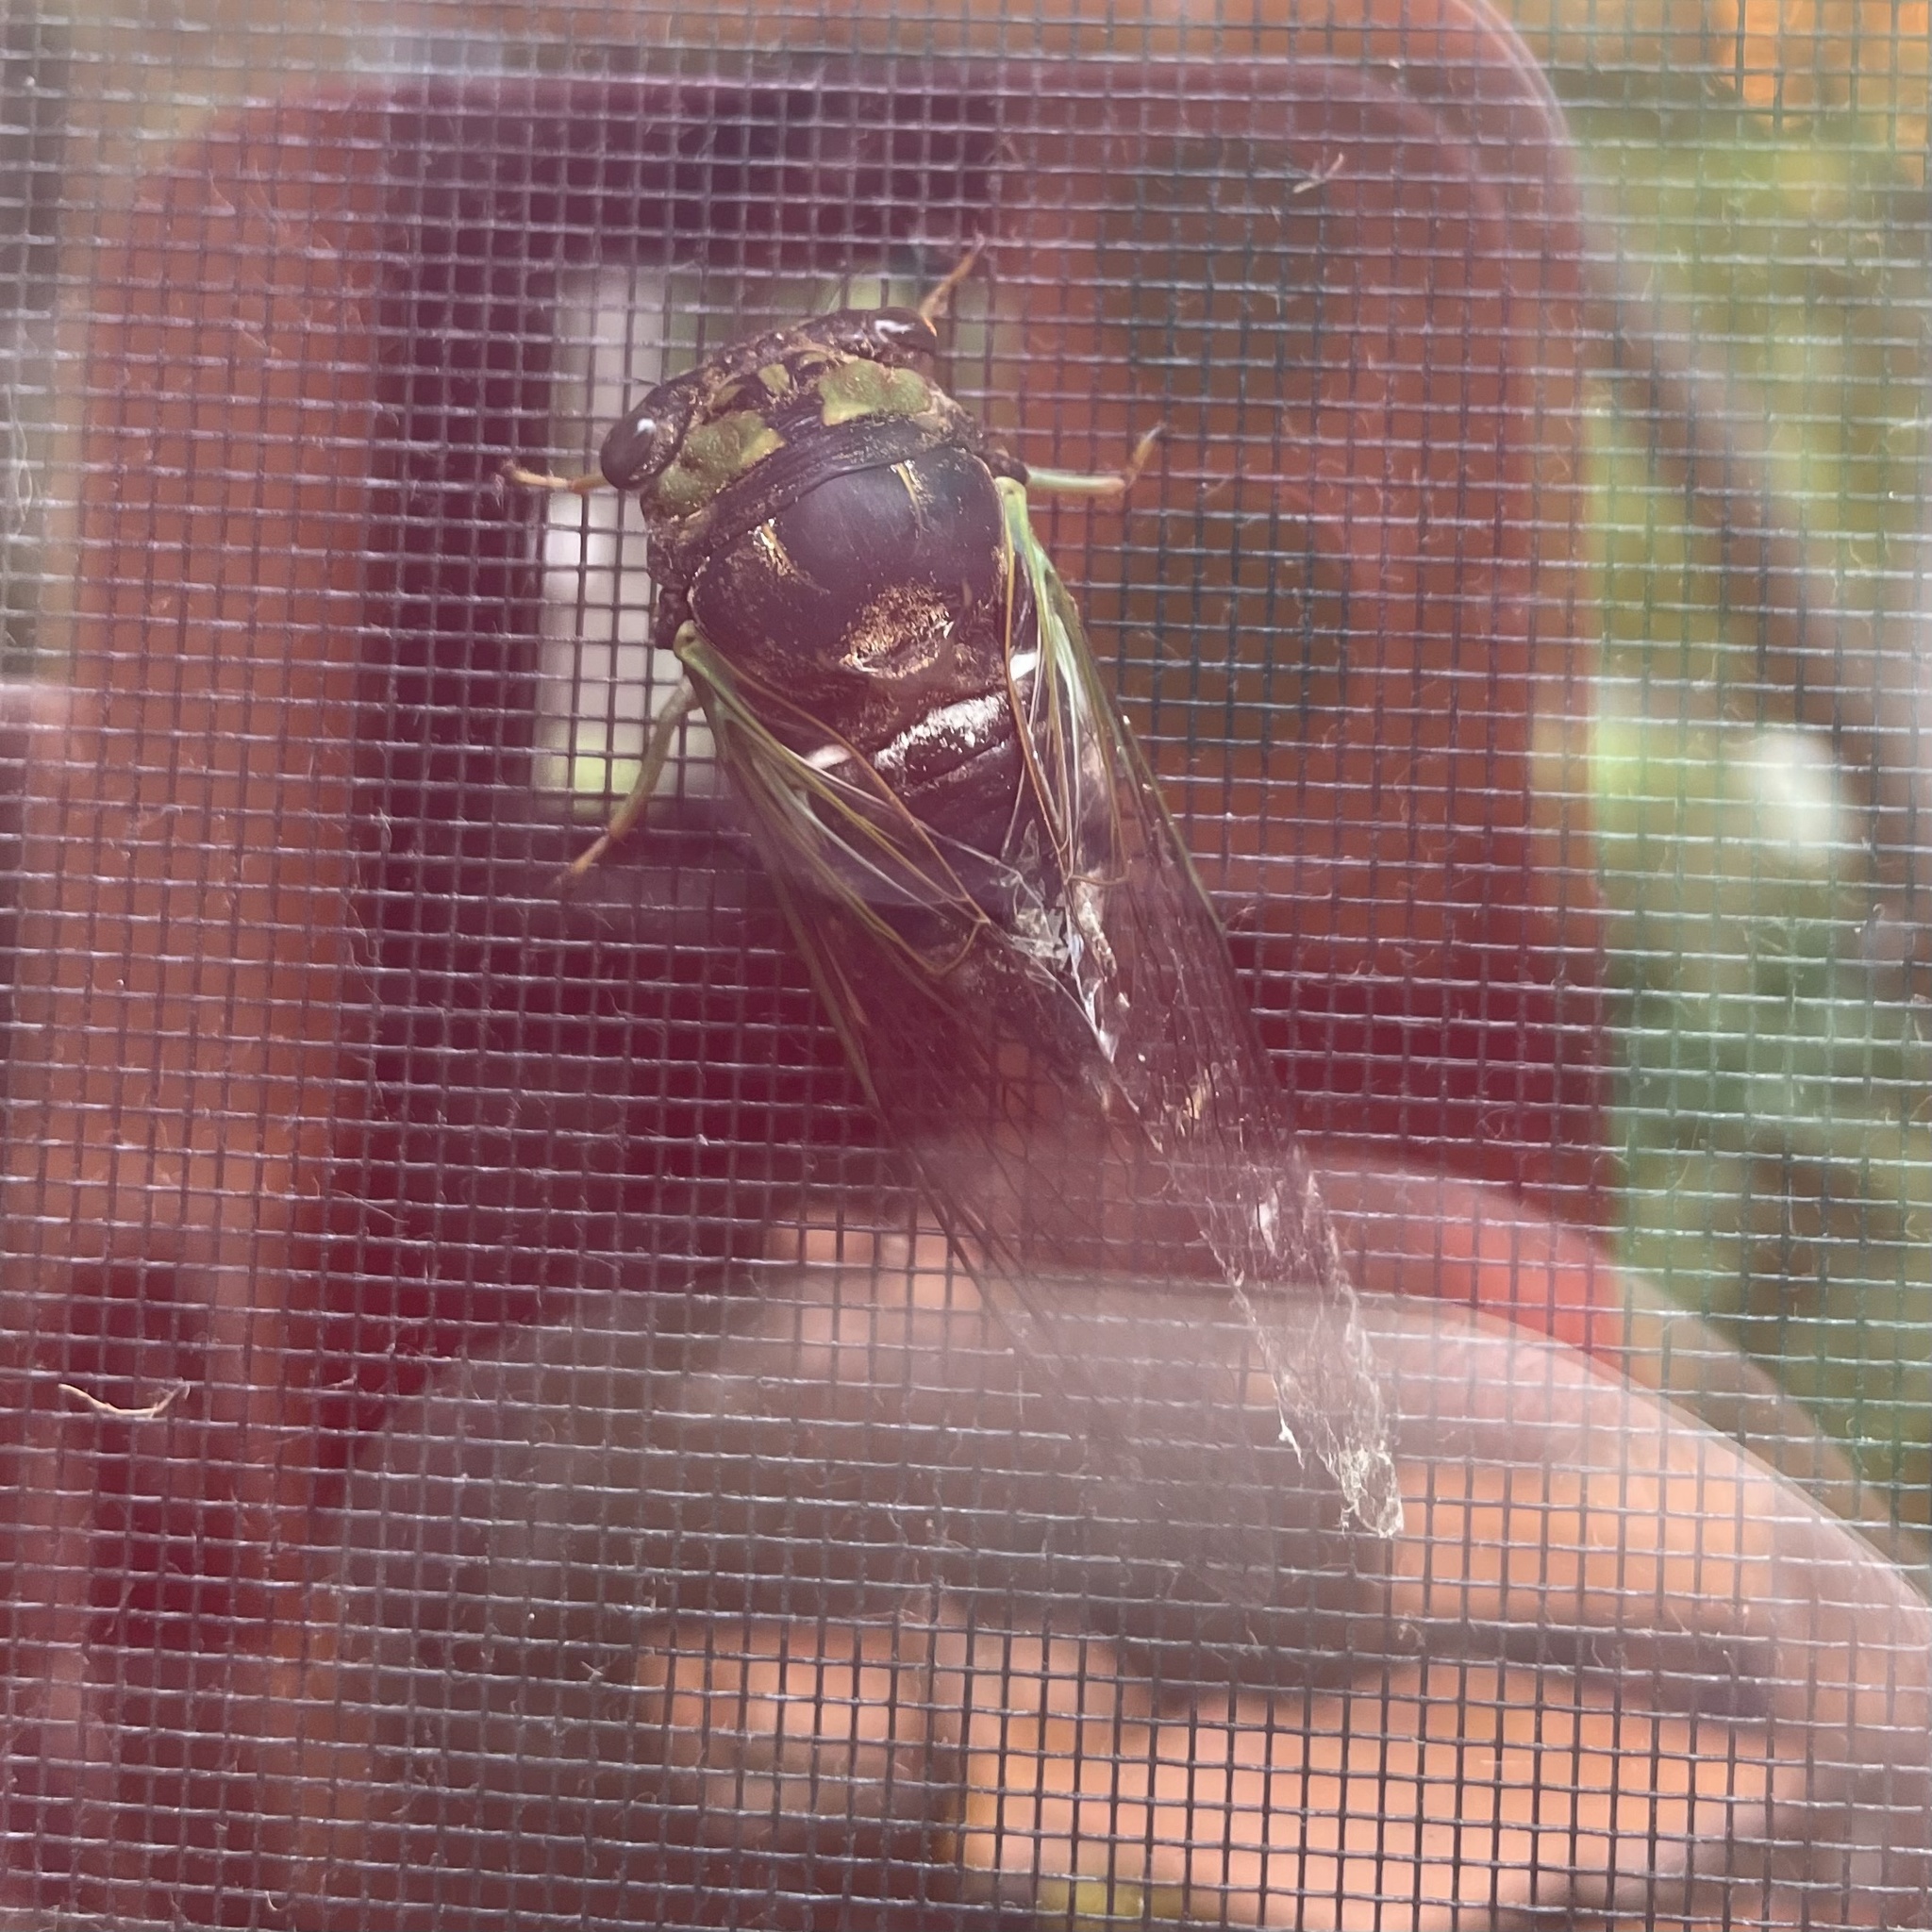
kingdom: Animalia
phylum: Arthropoda
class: Insecta
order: Hemiptera
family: Cicadidae
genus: Neotibicen
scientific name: Neotibicen tibicen
